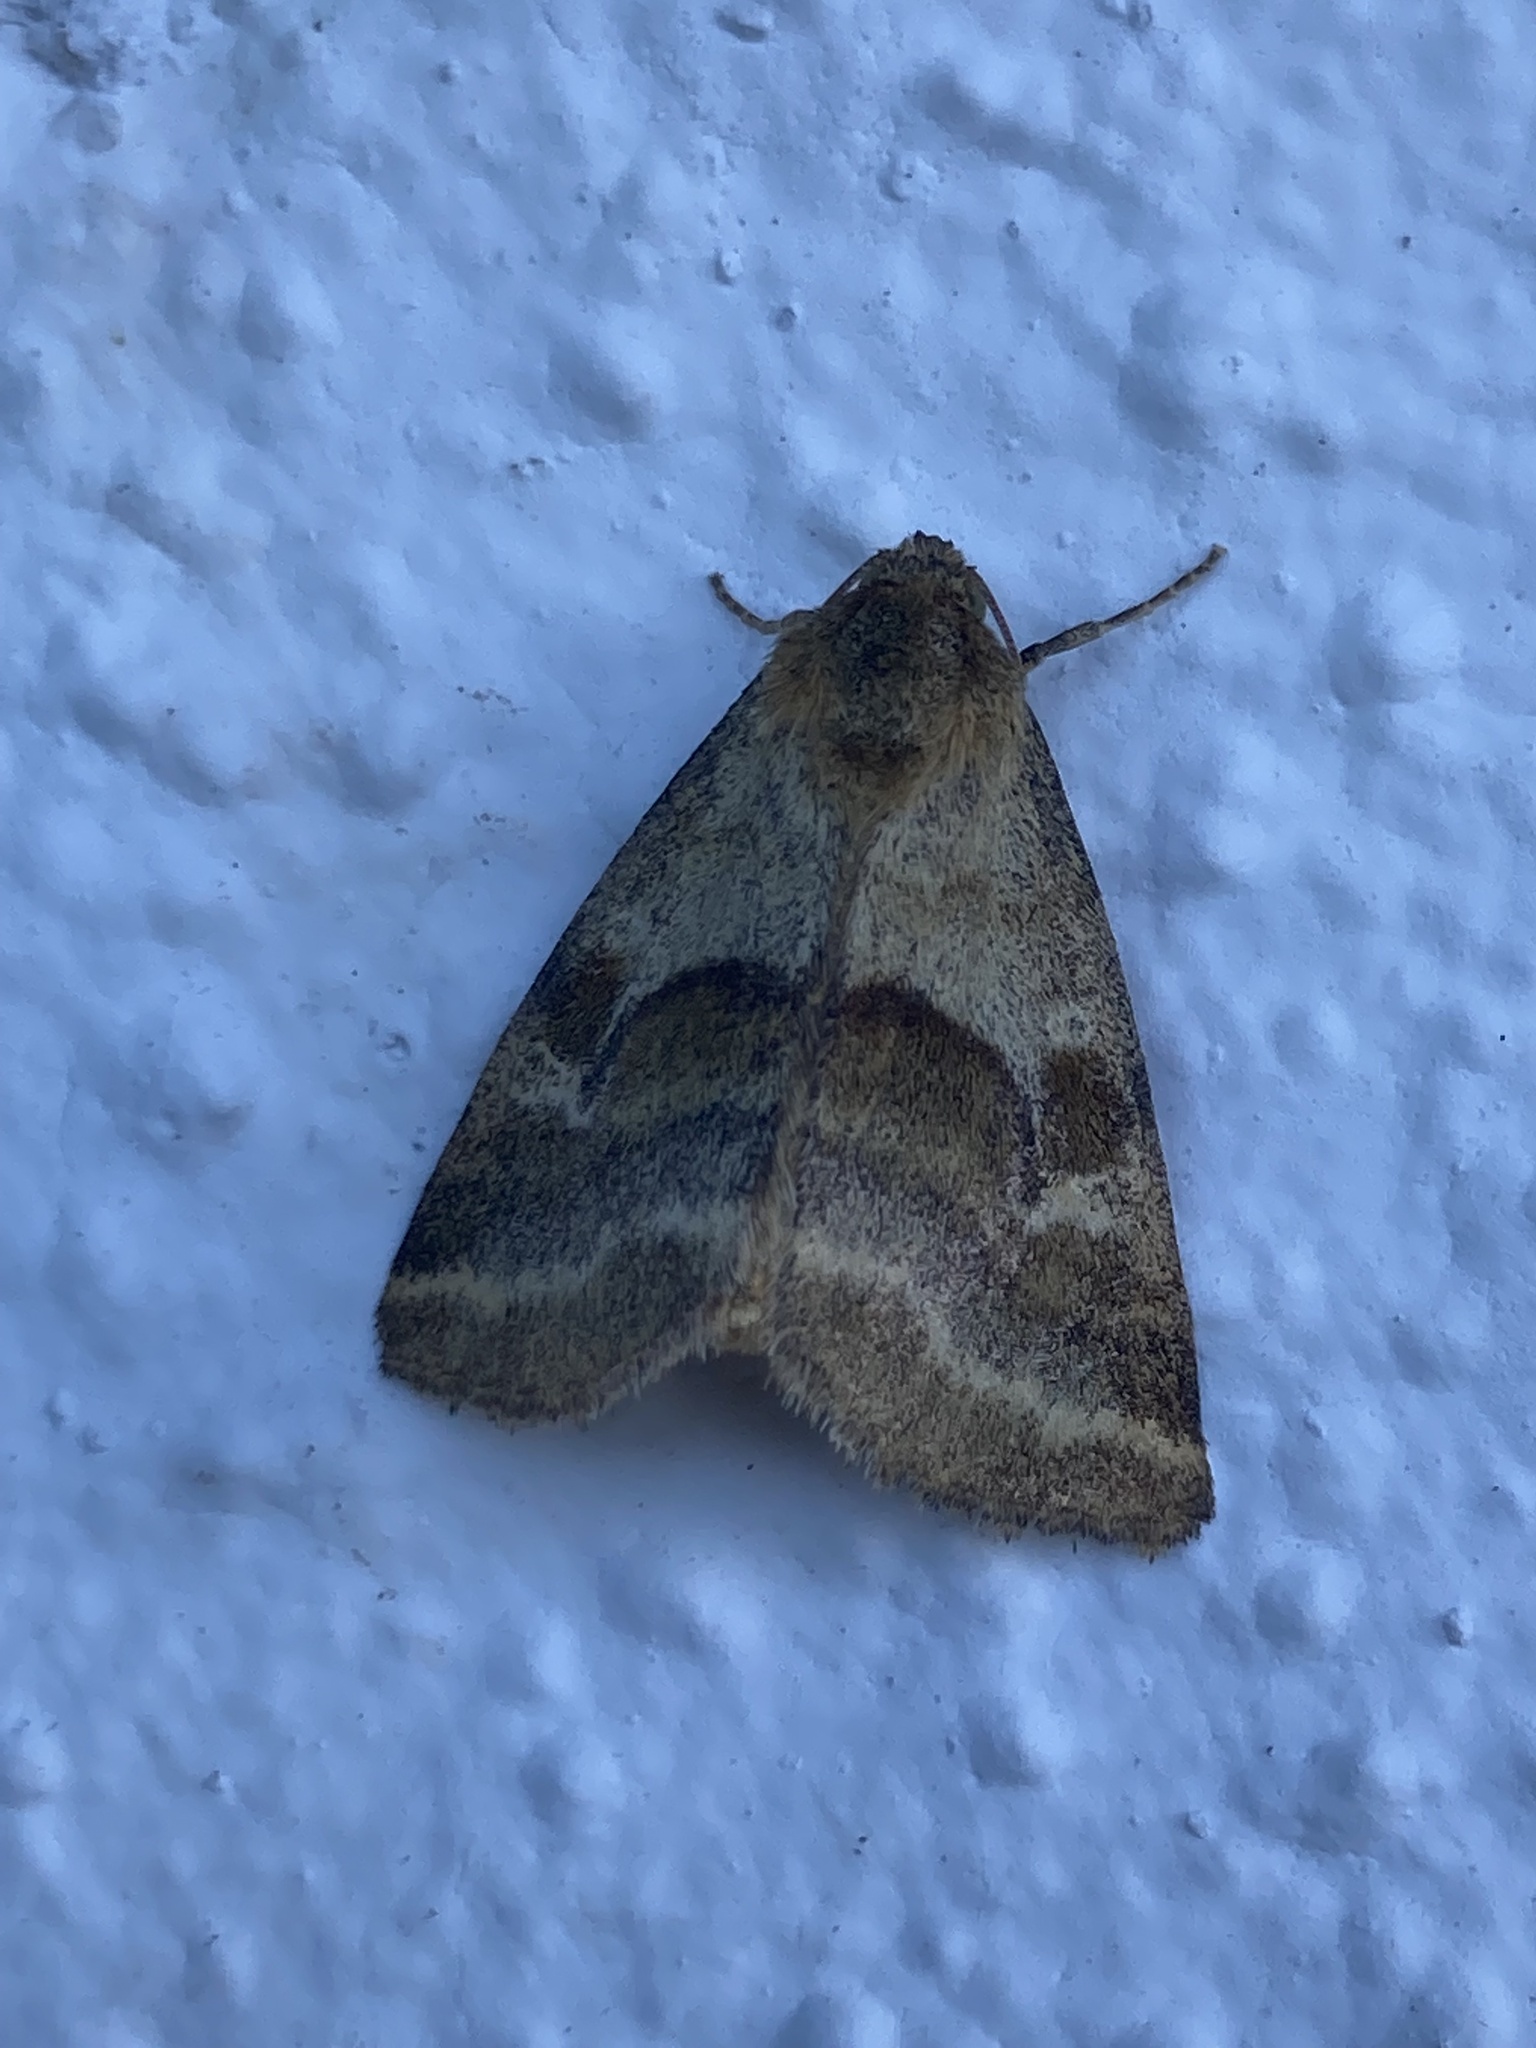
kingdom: Animalia
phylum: Arthropoda
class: Insecta
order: Lepidoptera
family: Noctuidae
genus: Synthymia
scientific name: Synthymia fixa
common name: Goldwing
